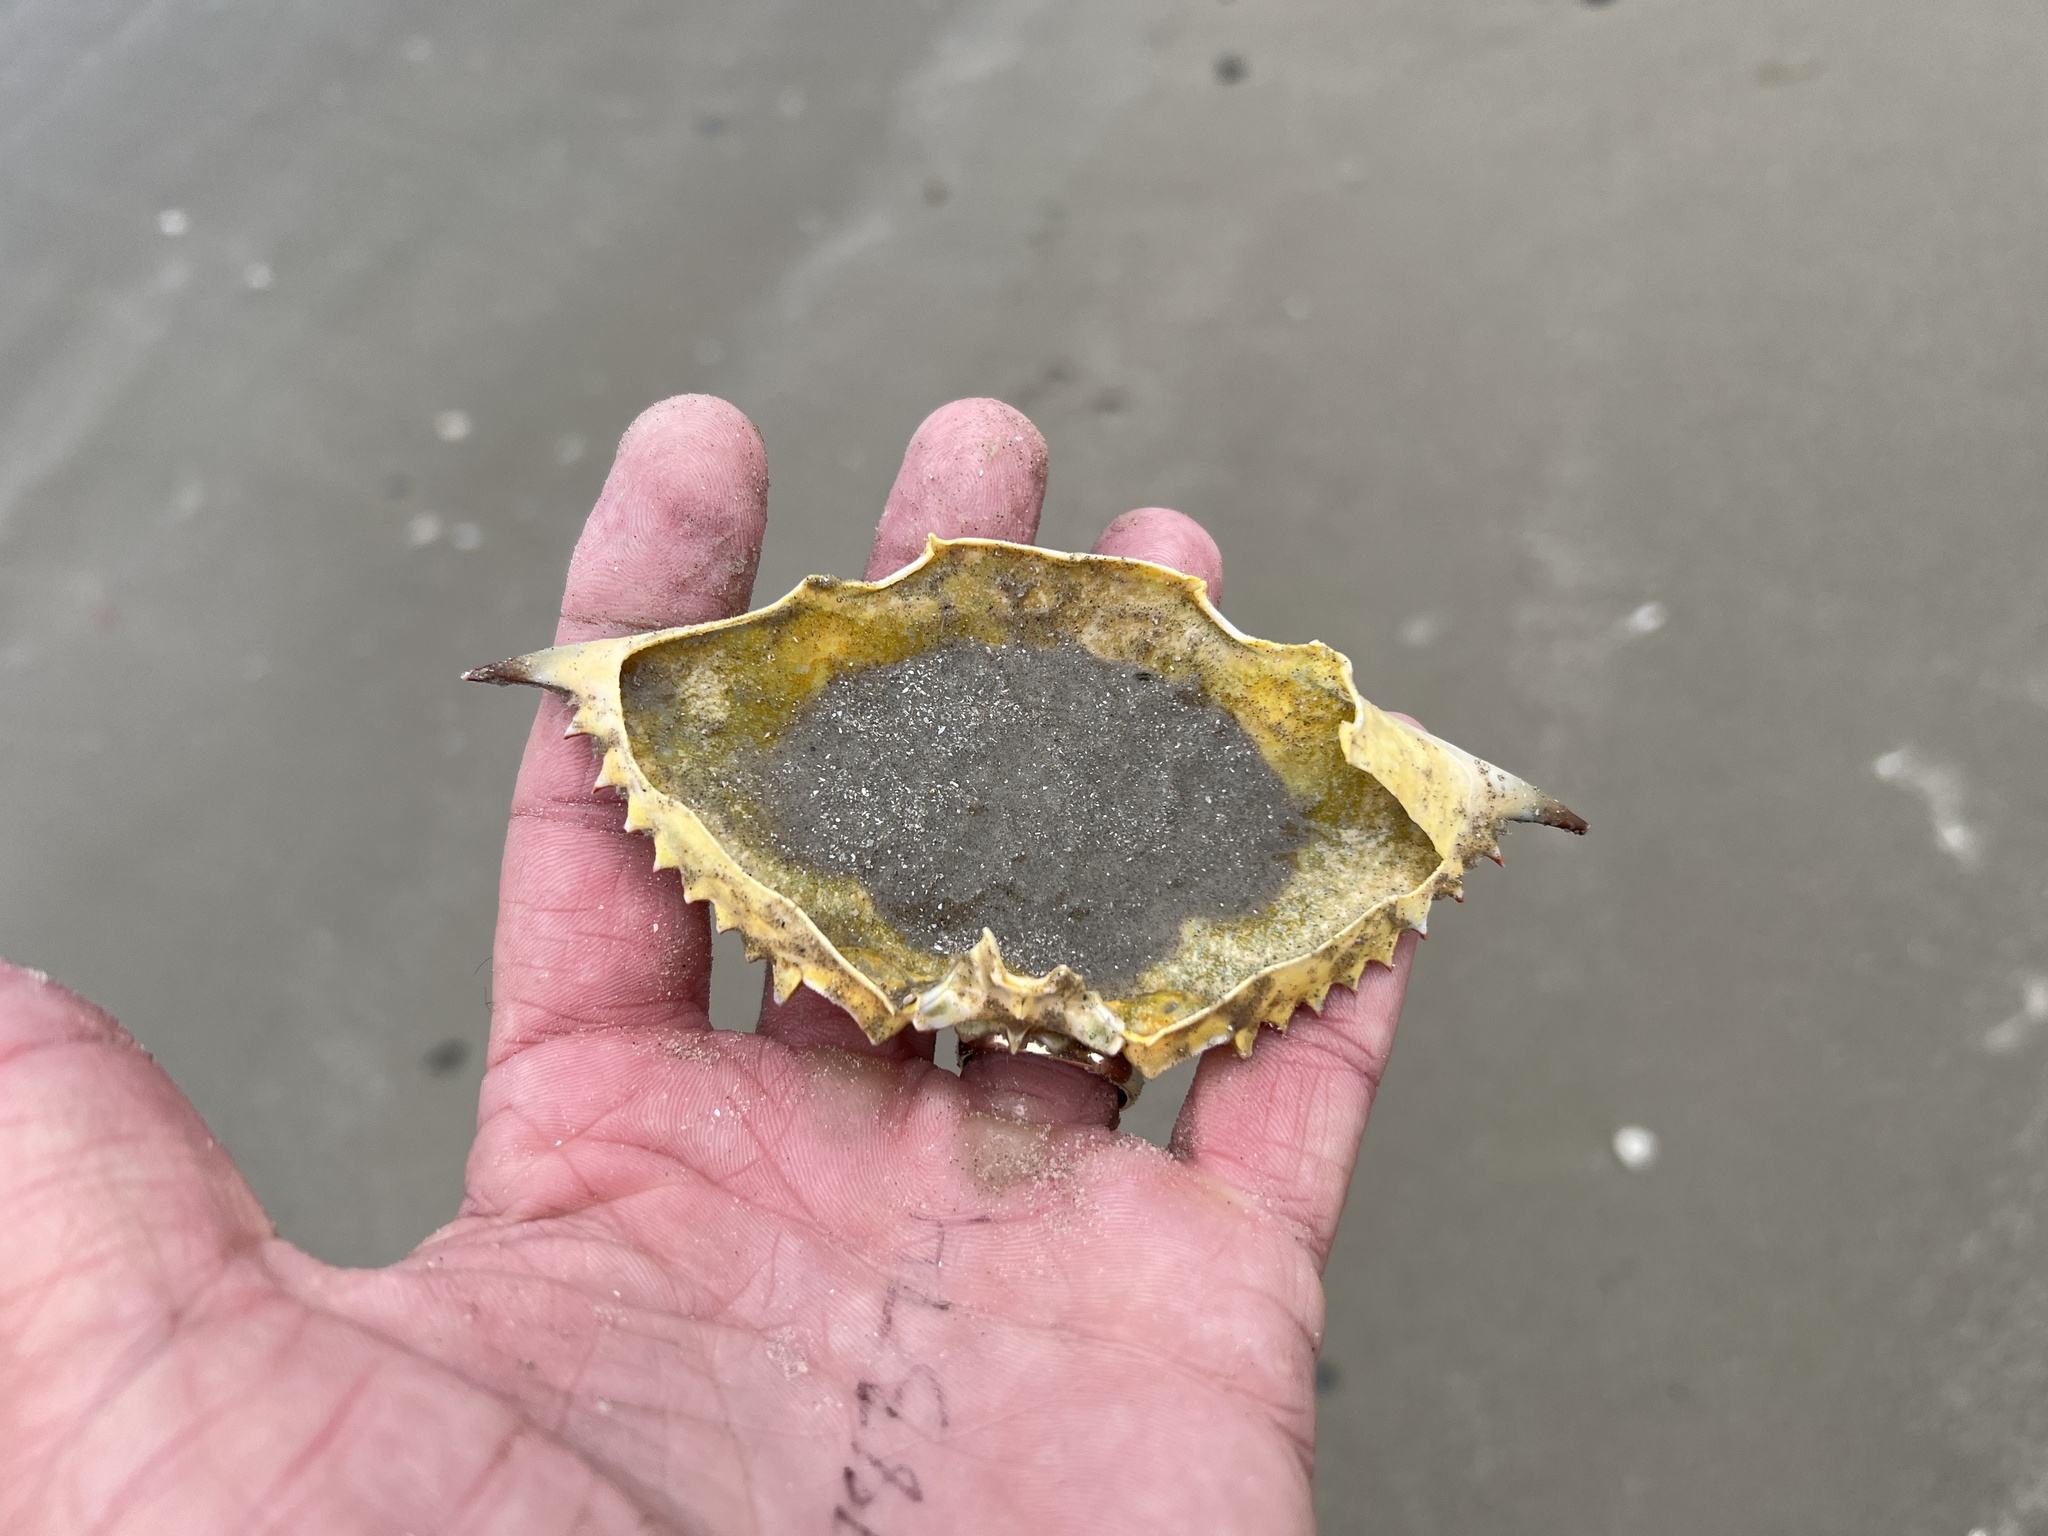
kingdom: Animalia
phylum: Arthropoda
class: Malacostraca
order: Decapoda
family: Portunidae
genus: Callinectes
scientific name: Callinectes sapidus
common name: Blue crab
